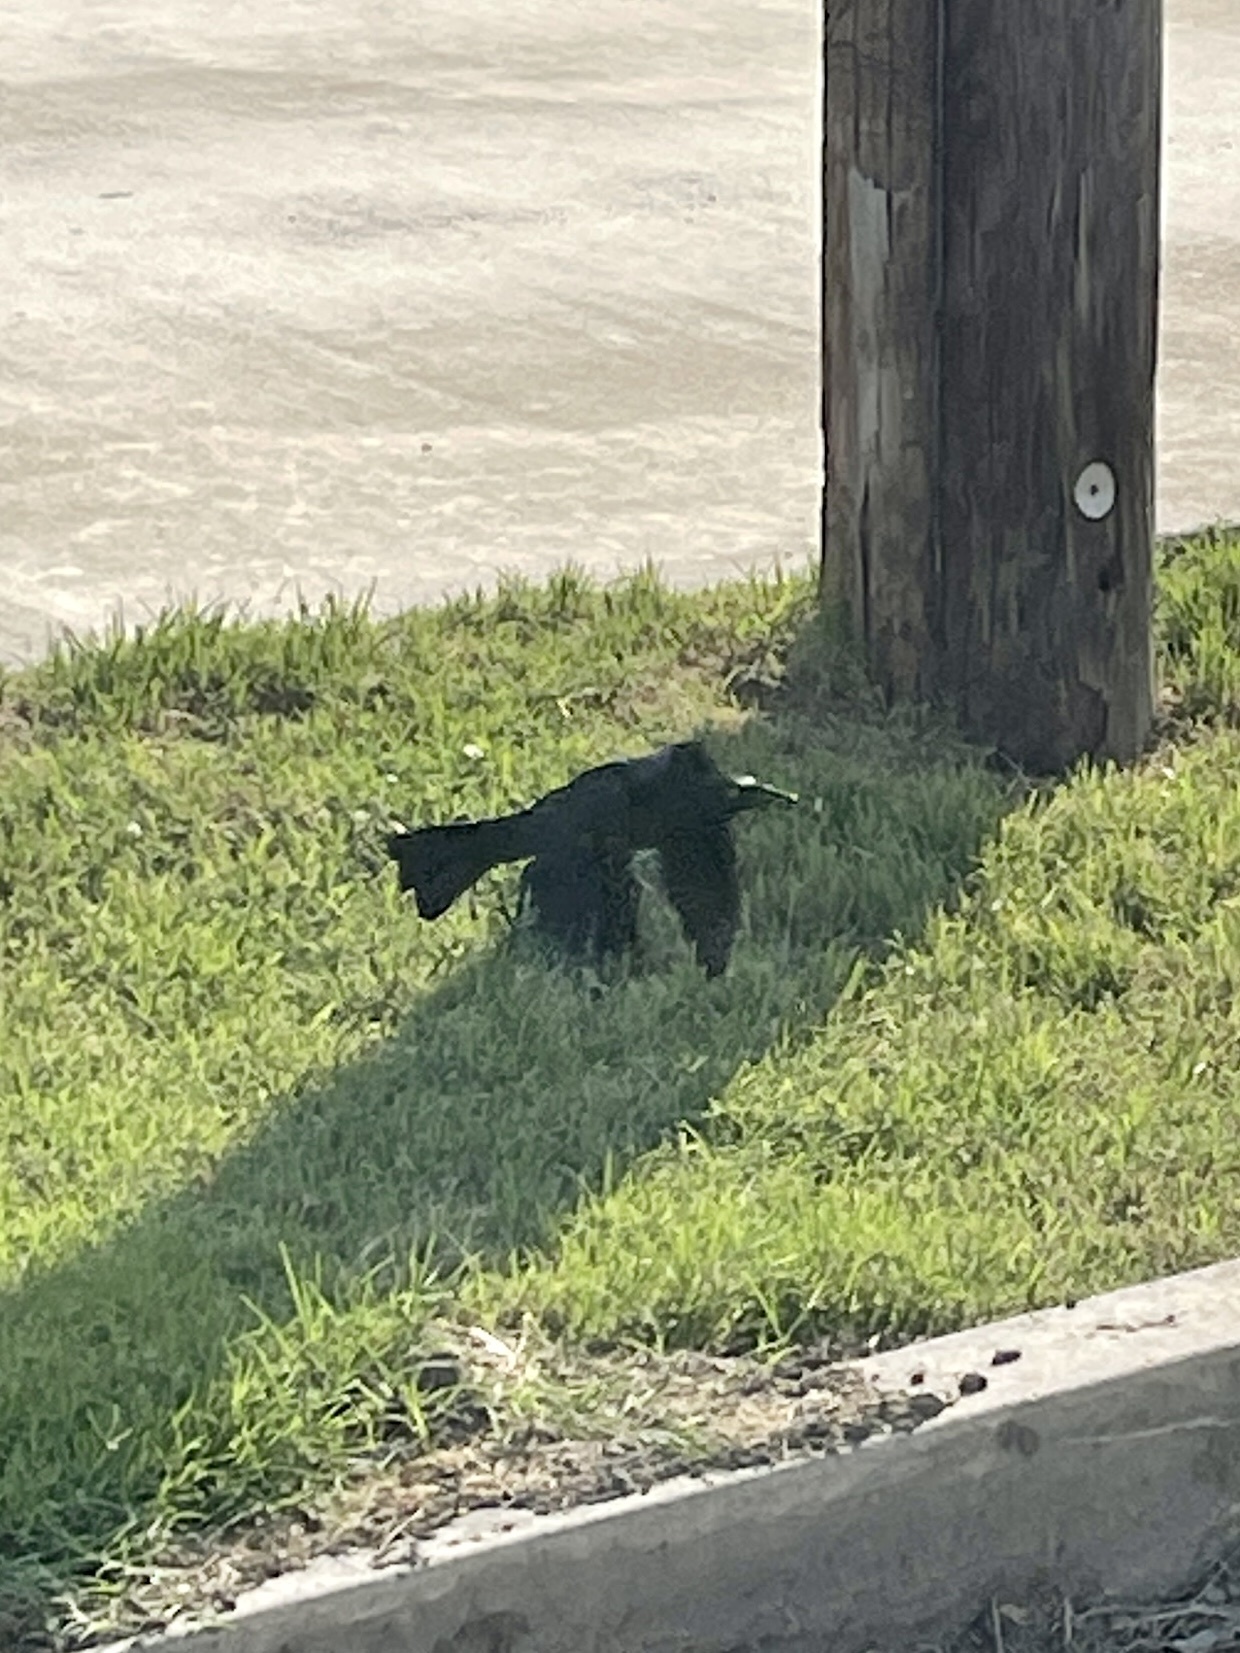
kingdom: Animalia
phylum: Chordata
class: Aves
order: Passeriformes
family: Icteridae
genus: Quiscalus
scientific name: Quiscalus mexicanus
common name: Great-tailed grackle
